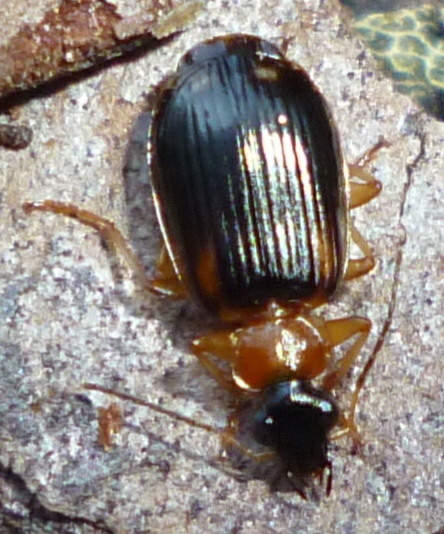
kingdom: Animalia
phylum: Arthropoda
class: Insecta
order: Coleoptera
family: Carabidae
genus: Lebia
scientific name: Lebia analis
